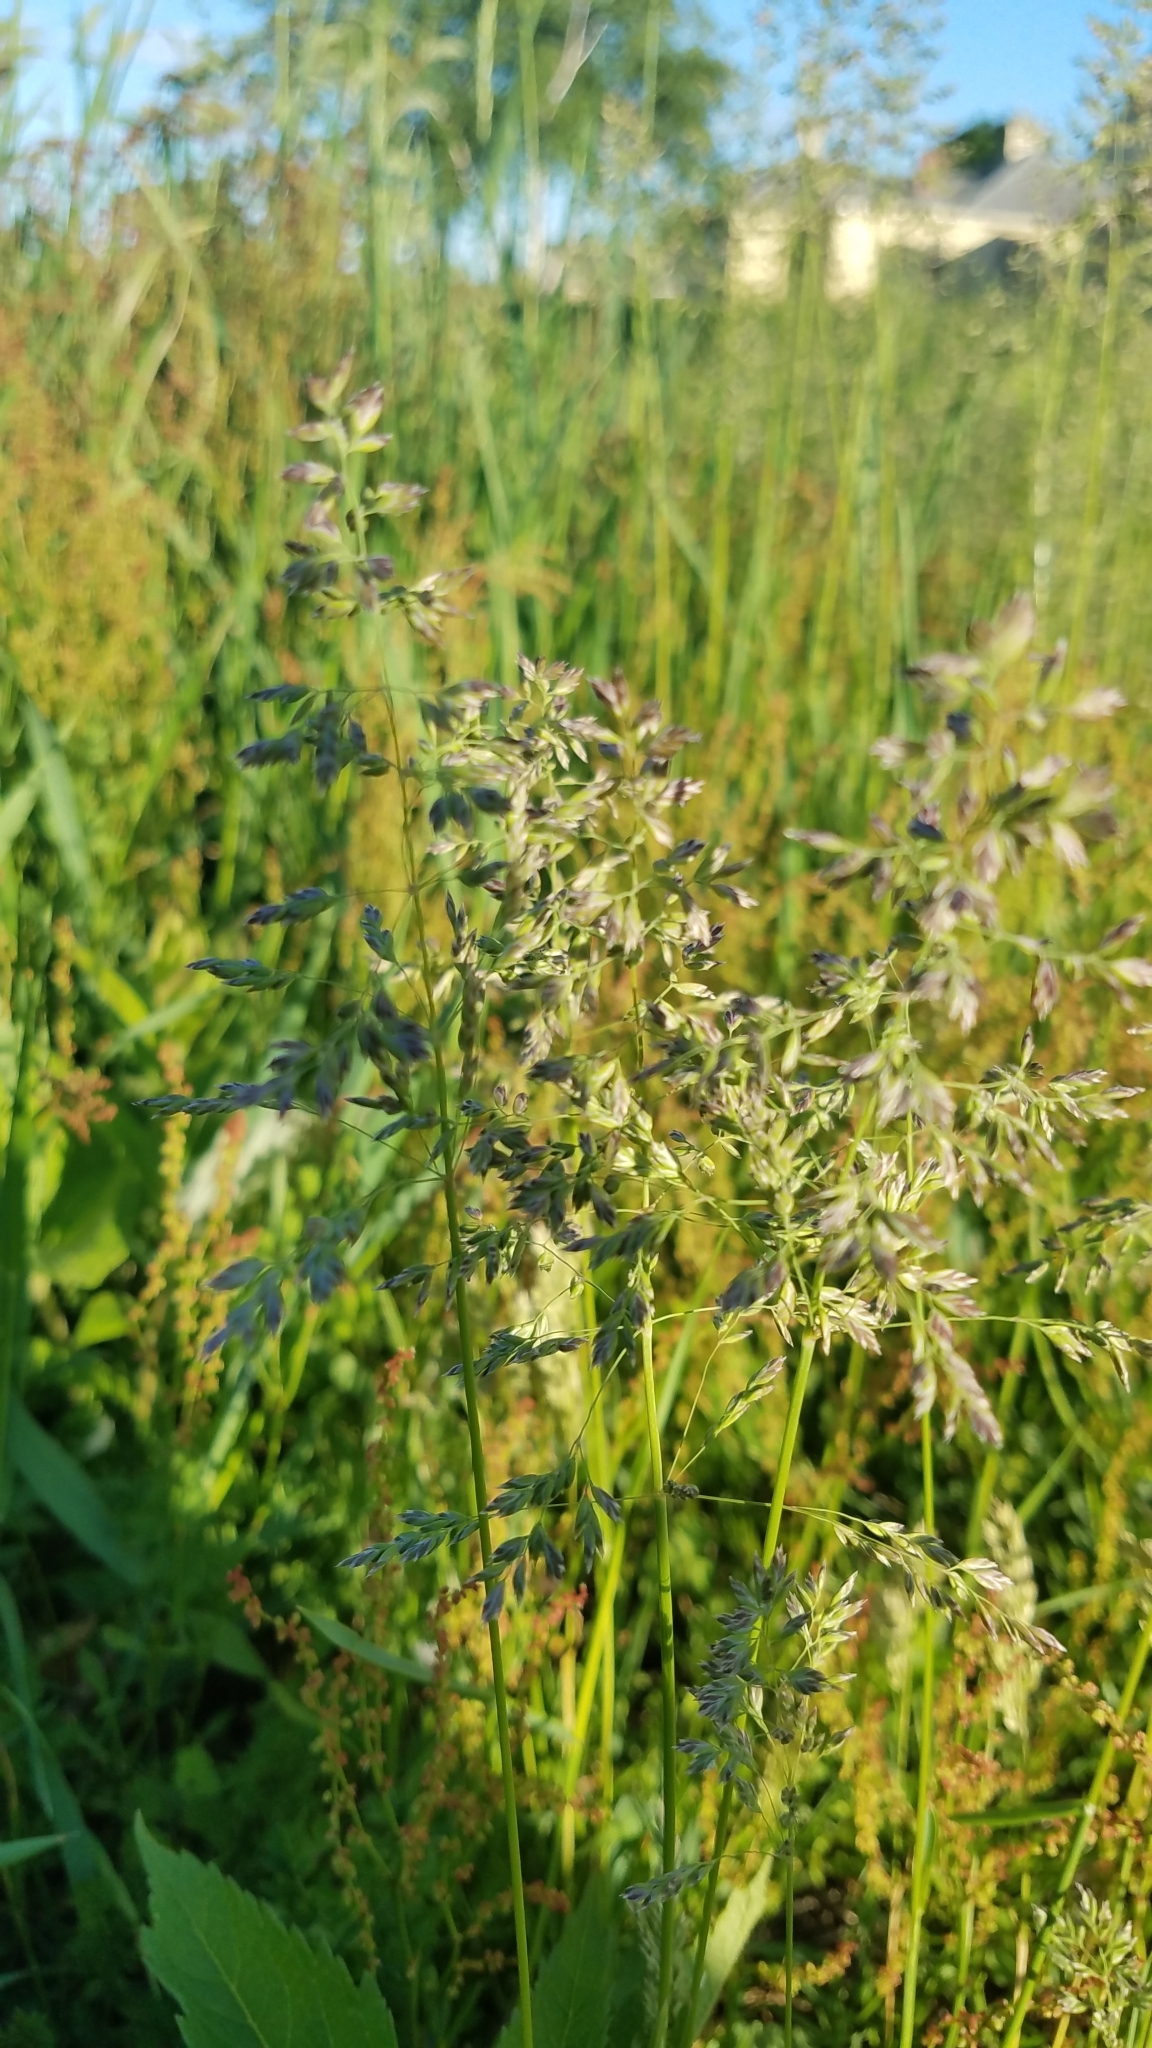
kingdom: Plantae
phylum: Tracheophyta
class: Liliopsida
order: Poales
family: Poaceae
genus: Poa
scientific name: Poa pratensis
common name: Kentucky bluegrass
